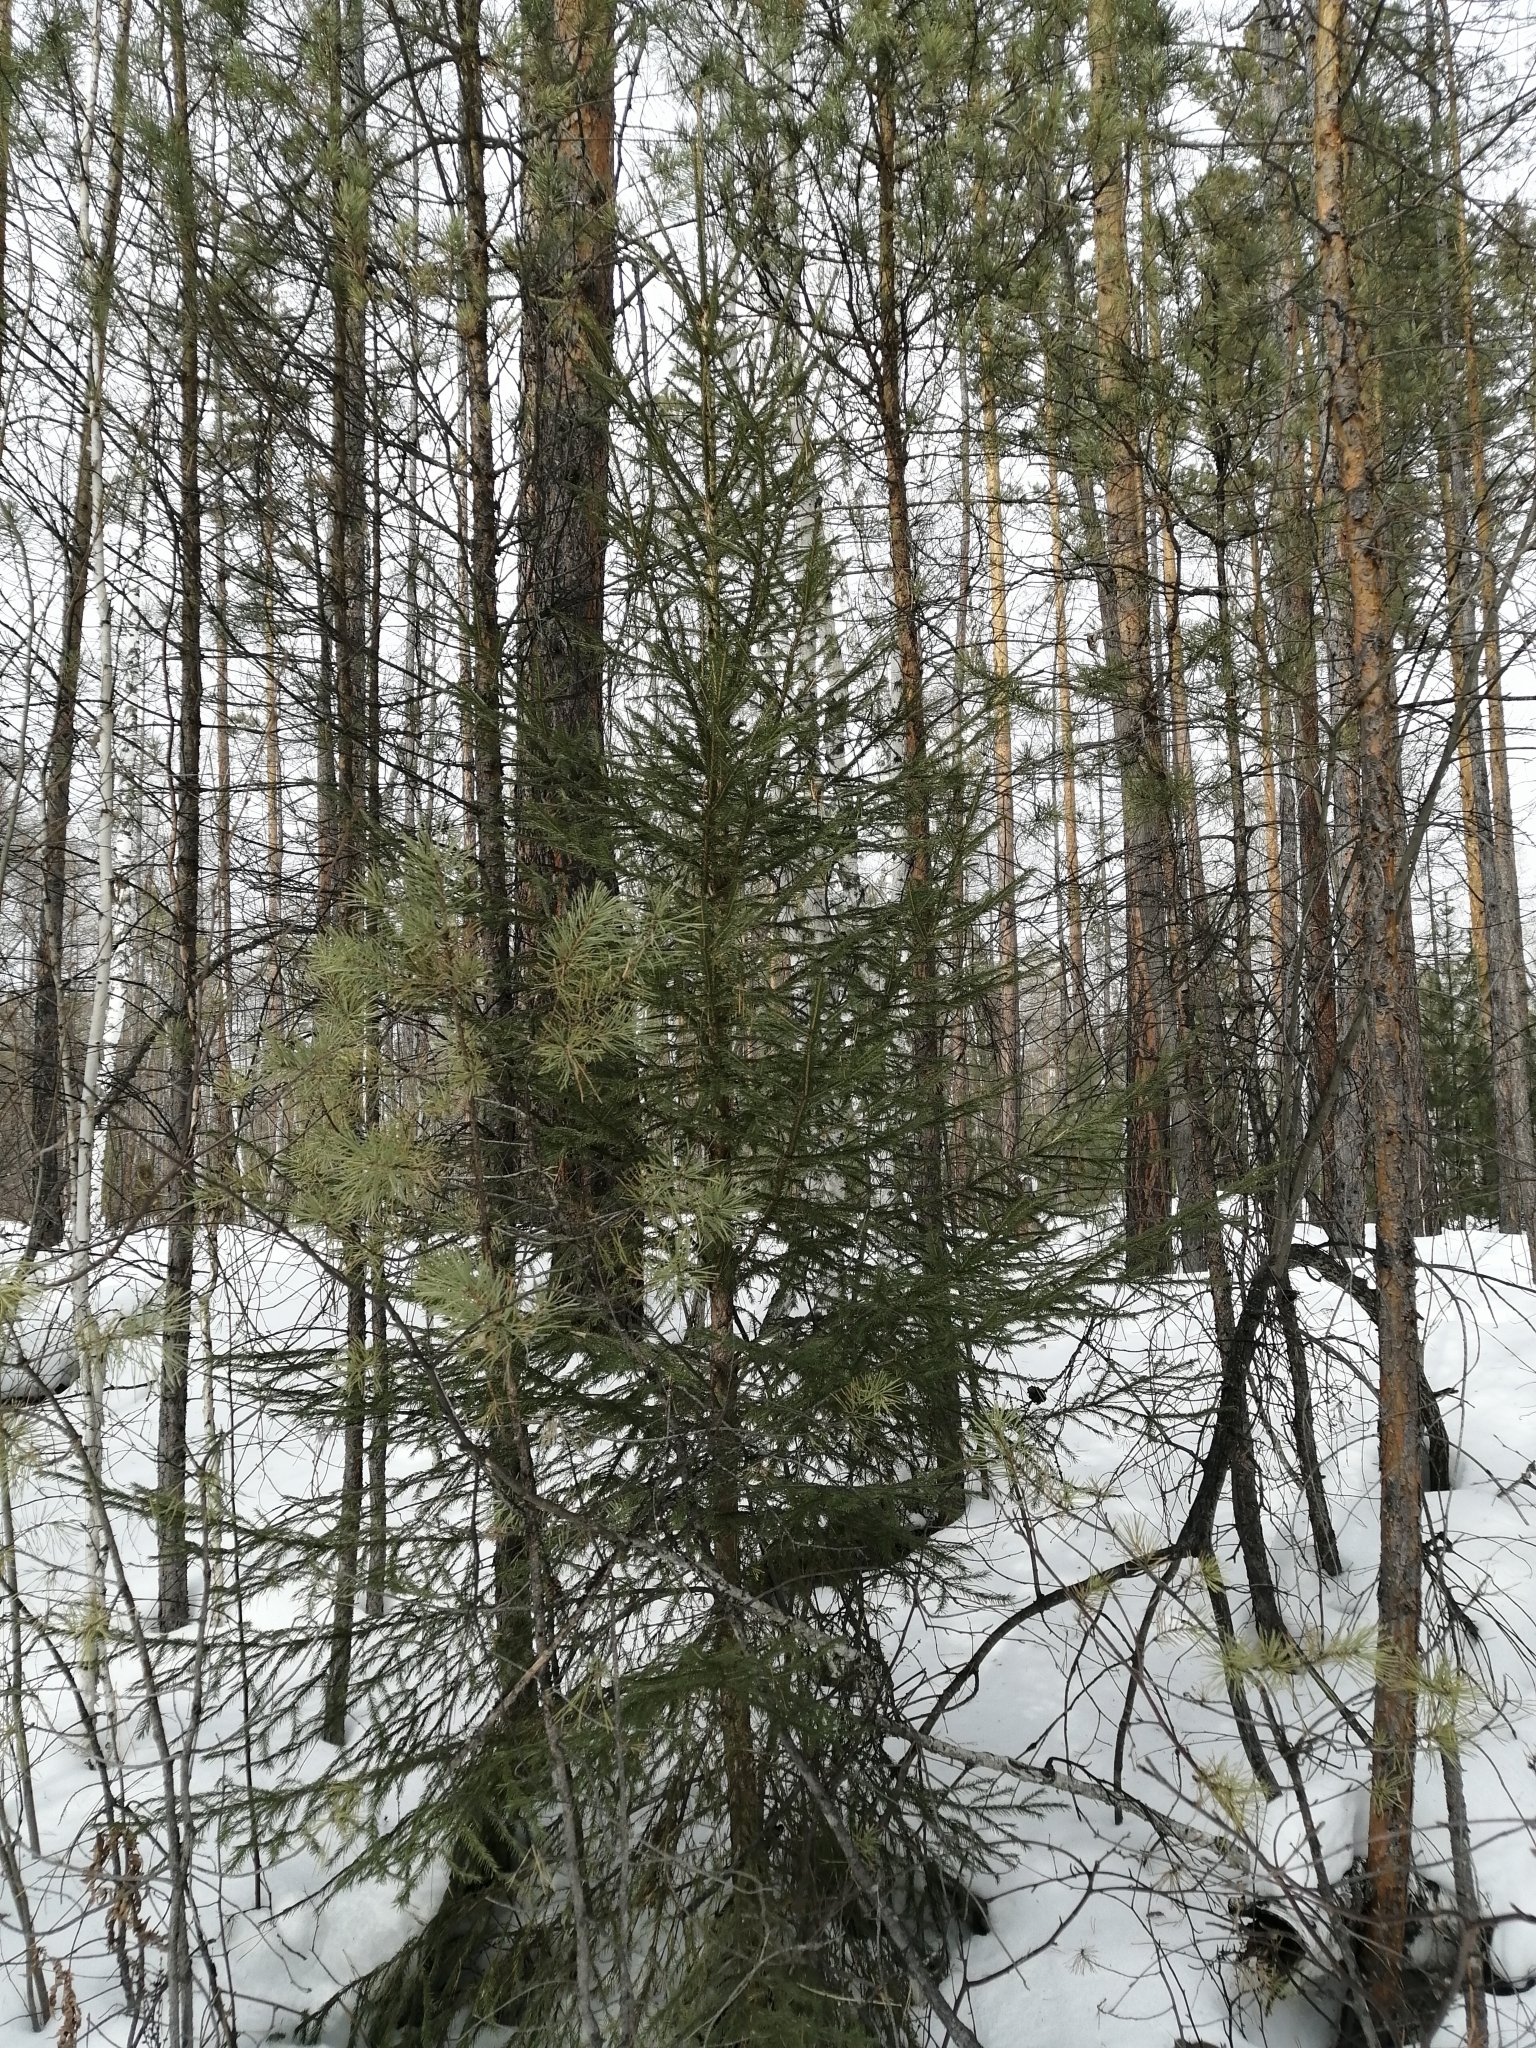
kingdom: Plantae
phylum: Tracheophyta
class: Pinopsida
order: Pinales
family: Pinaceae
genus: Picea
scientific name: Picea obovata
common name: Siberian spruce
